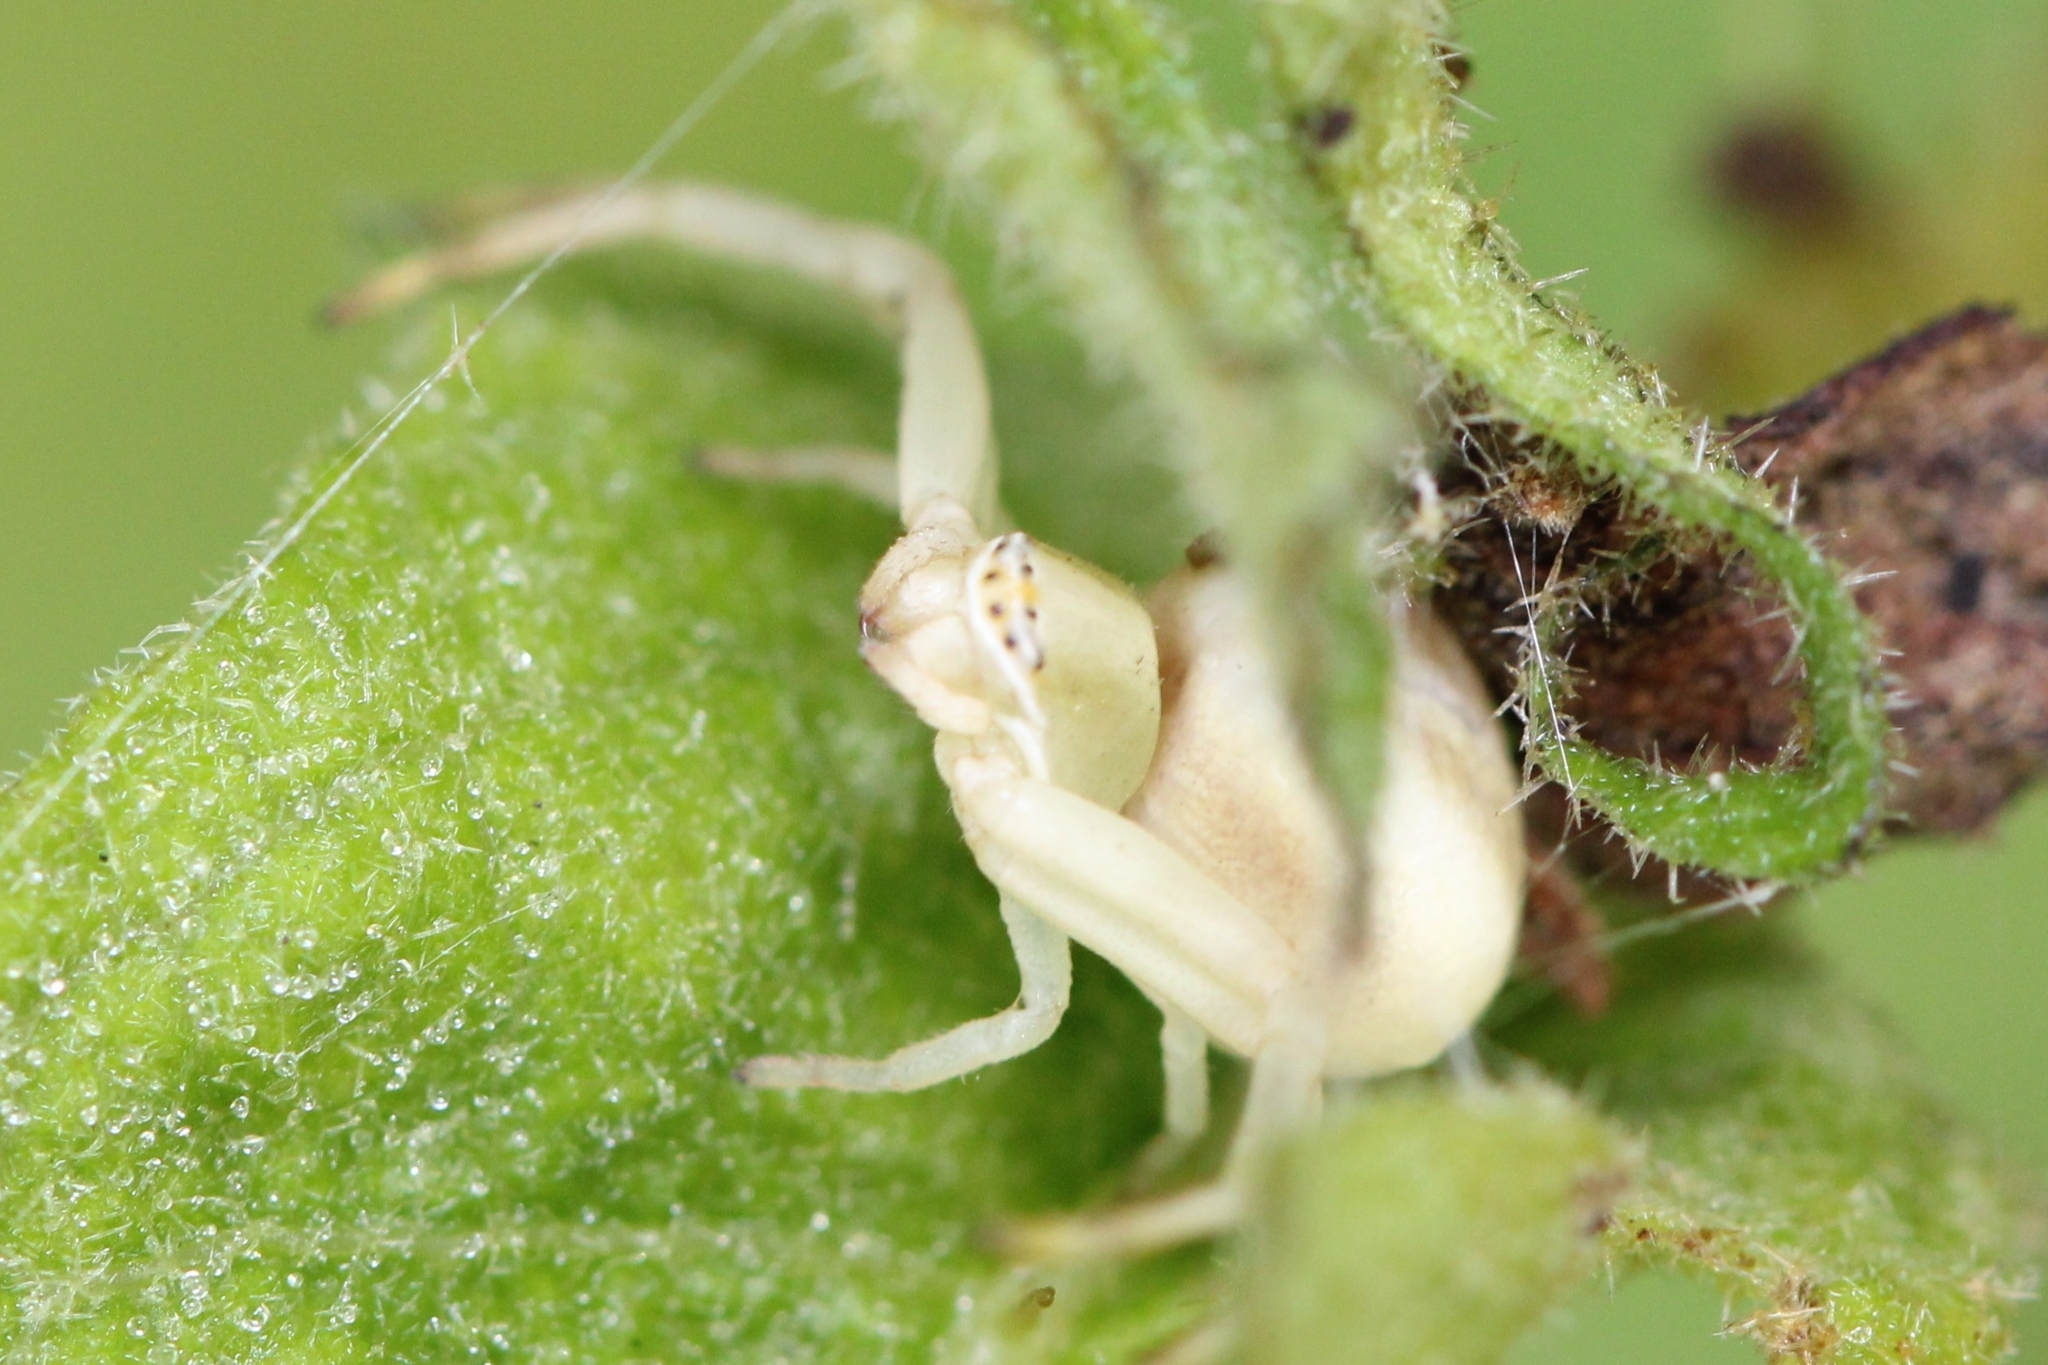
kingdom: Animalia
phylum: Arthropoda
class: Arachnida
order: Araneae
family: Thomisidae
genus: Misumenoides
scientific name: Misumenoides formosipes
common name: White-banded crab spider
